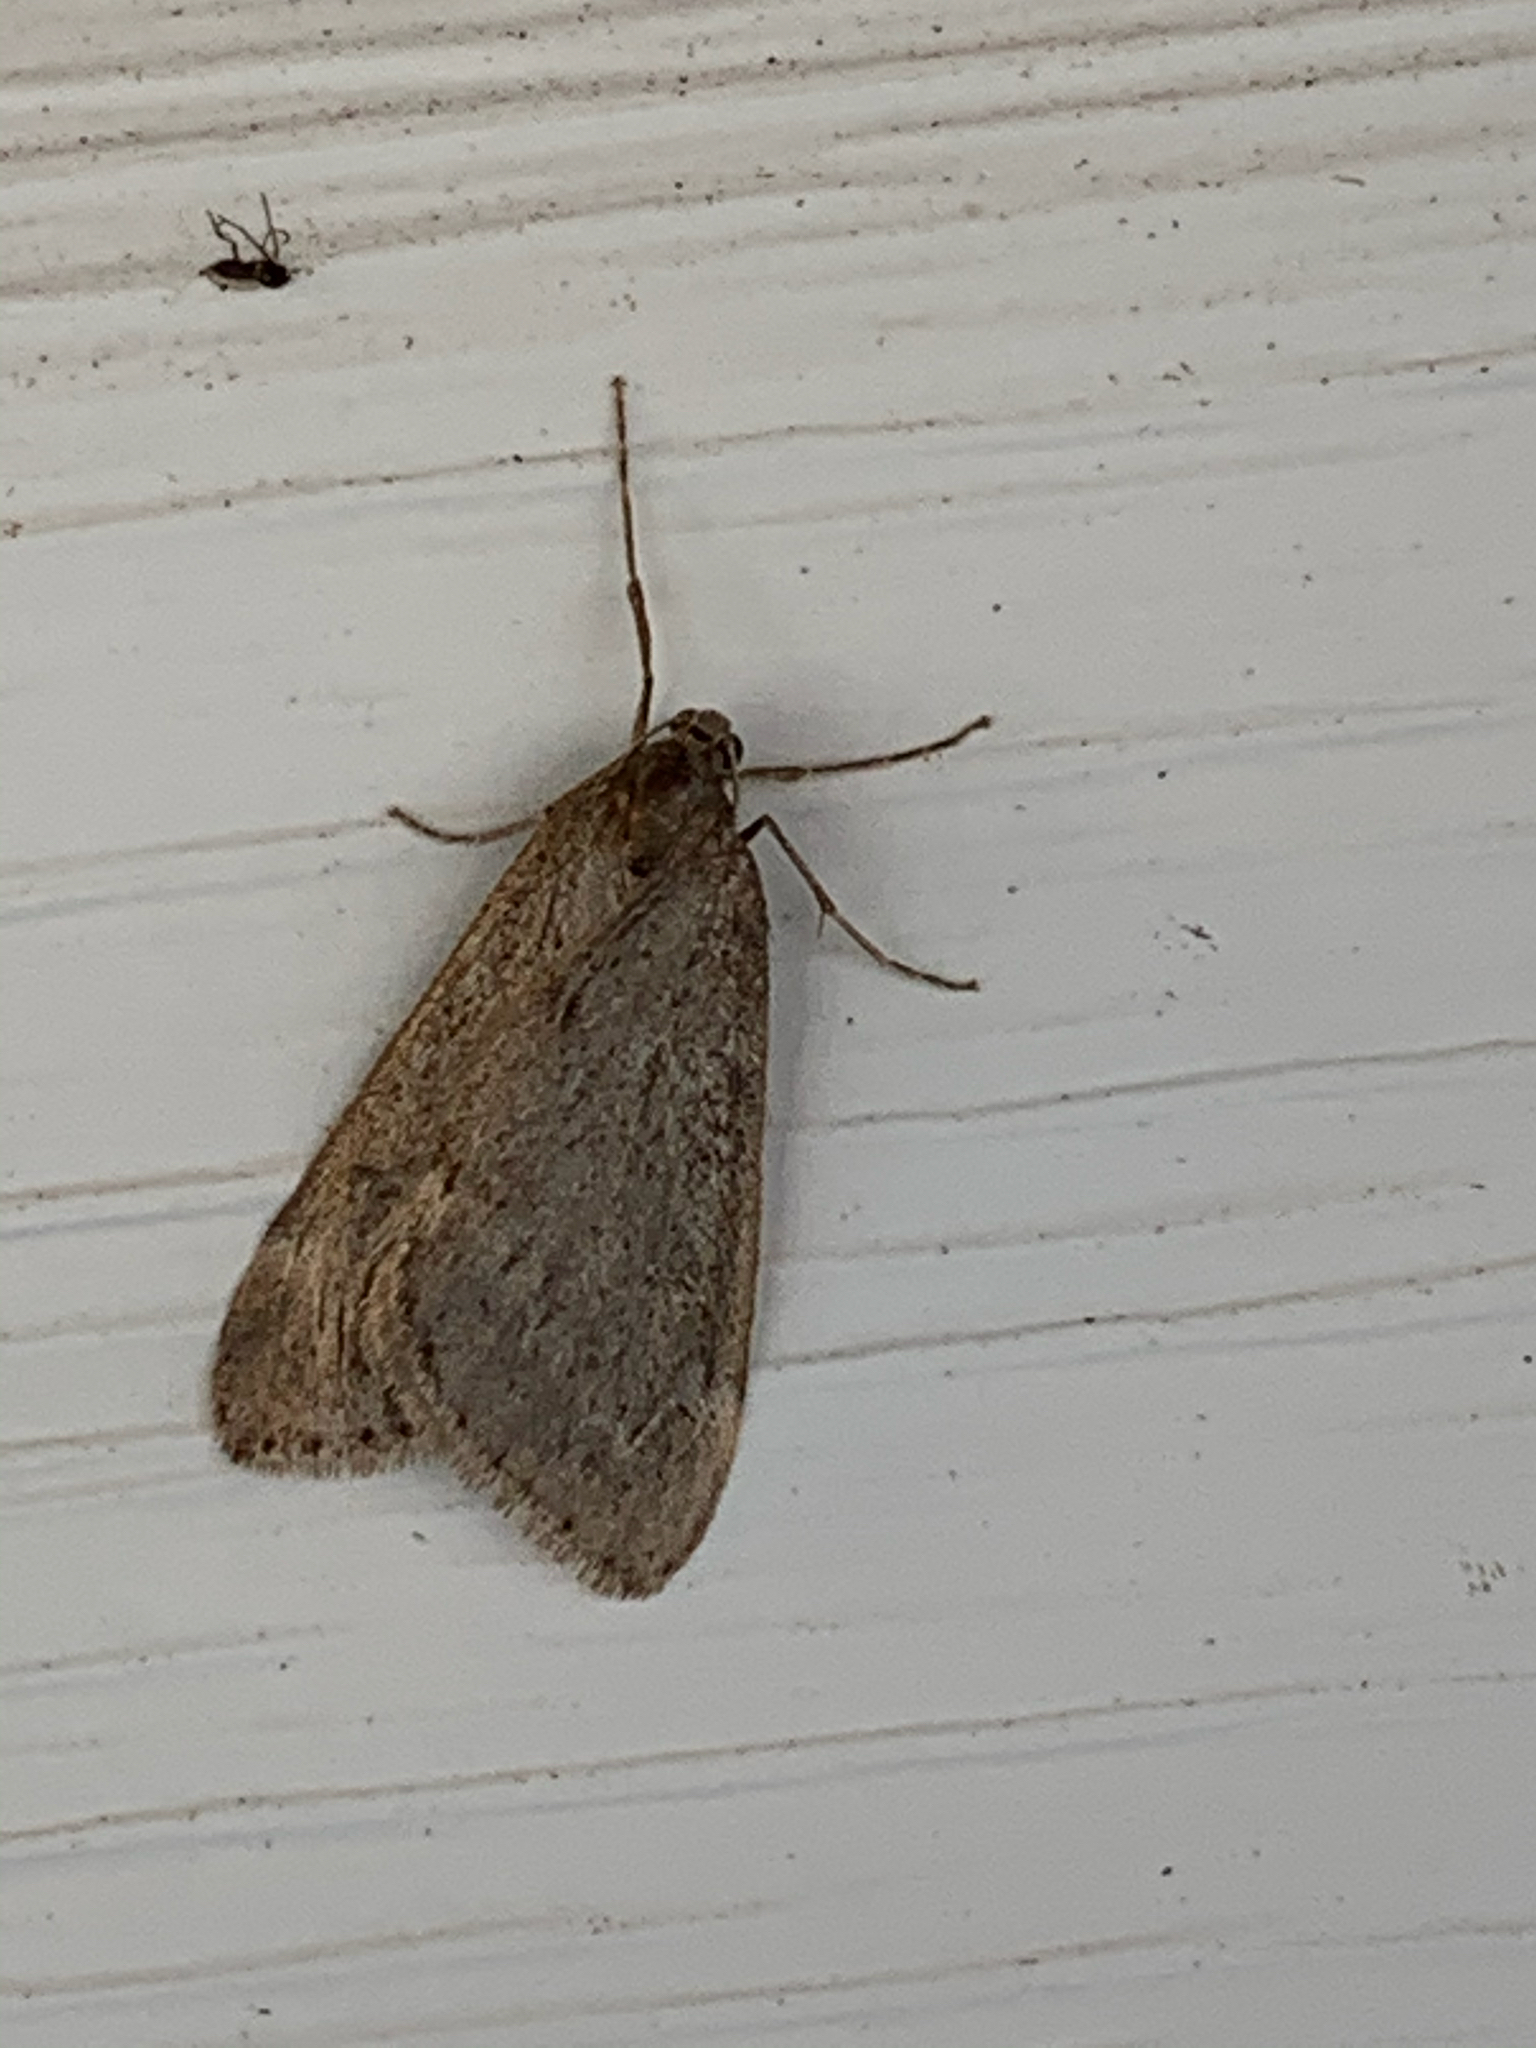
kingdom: Animalia
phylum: Arthropoda
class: Insecta
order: Lepidoptera
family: Geometridae
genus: Alsophila
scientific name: Alsophila pometaria
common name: Fall cankerworm
